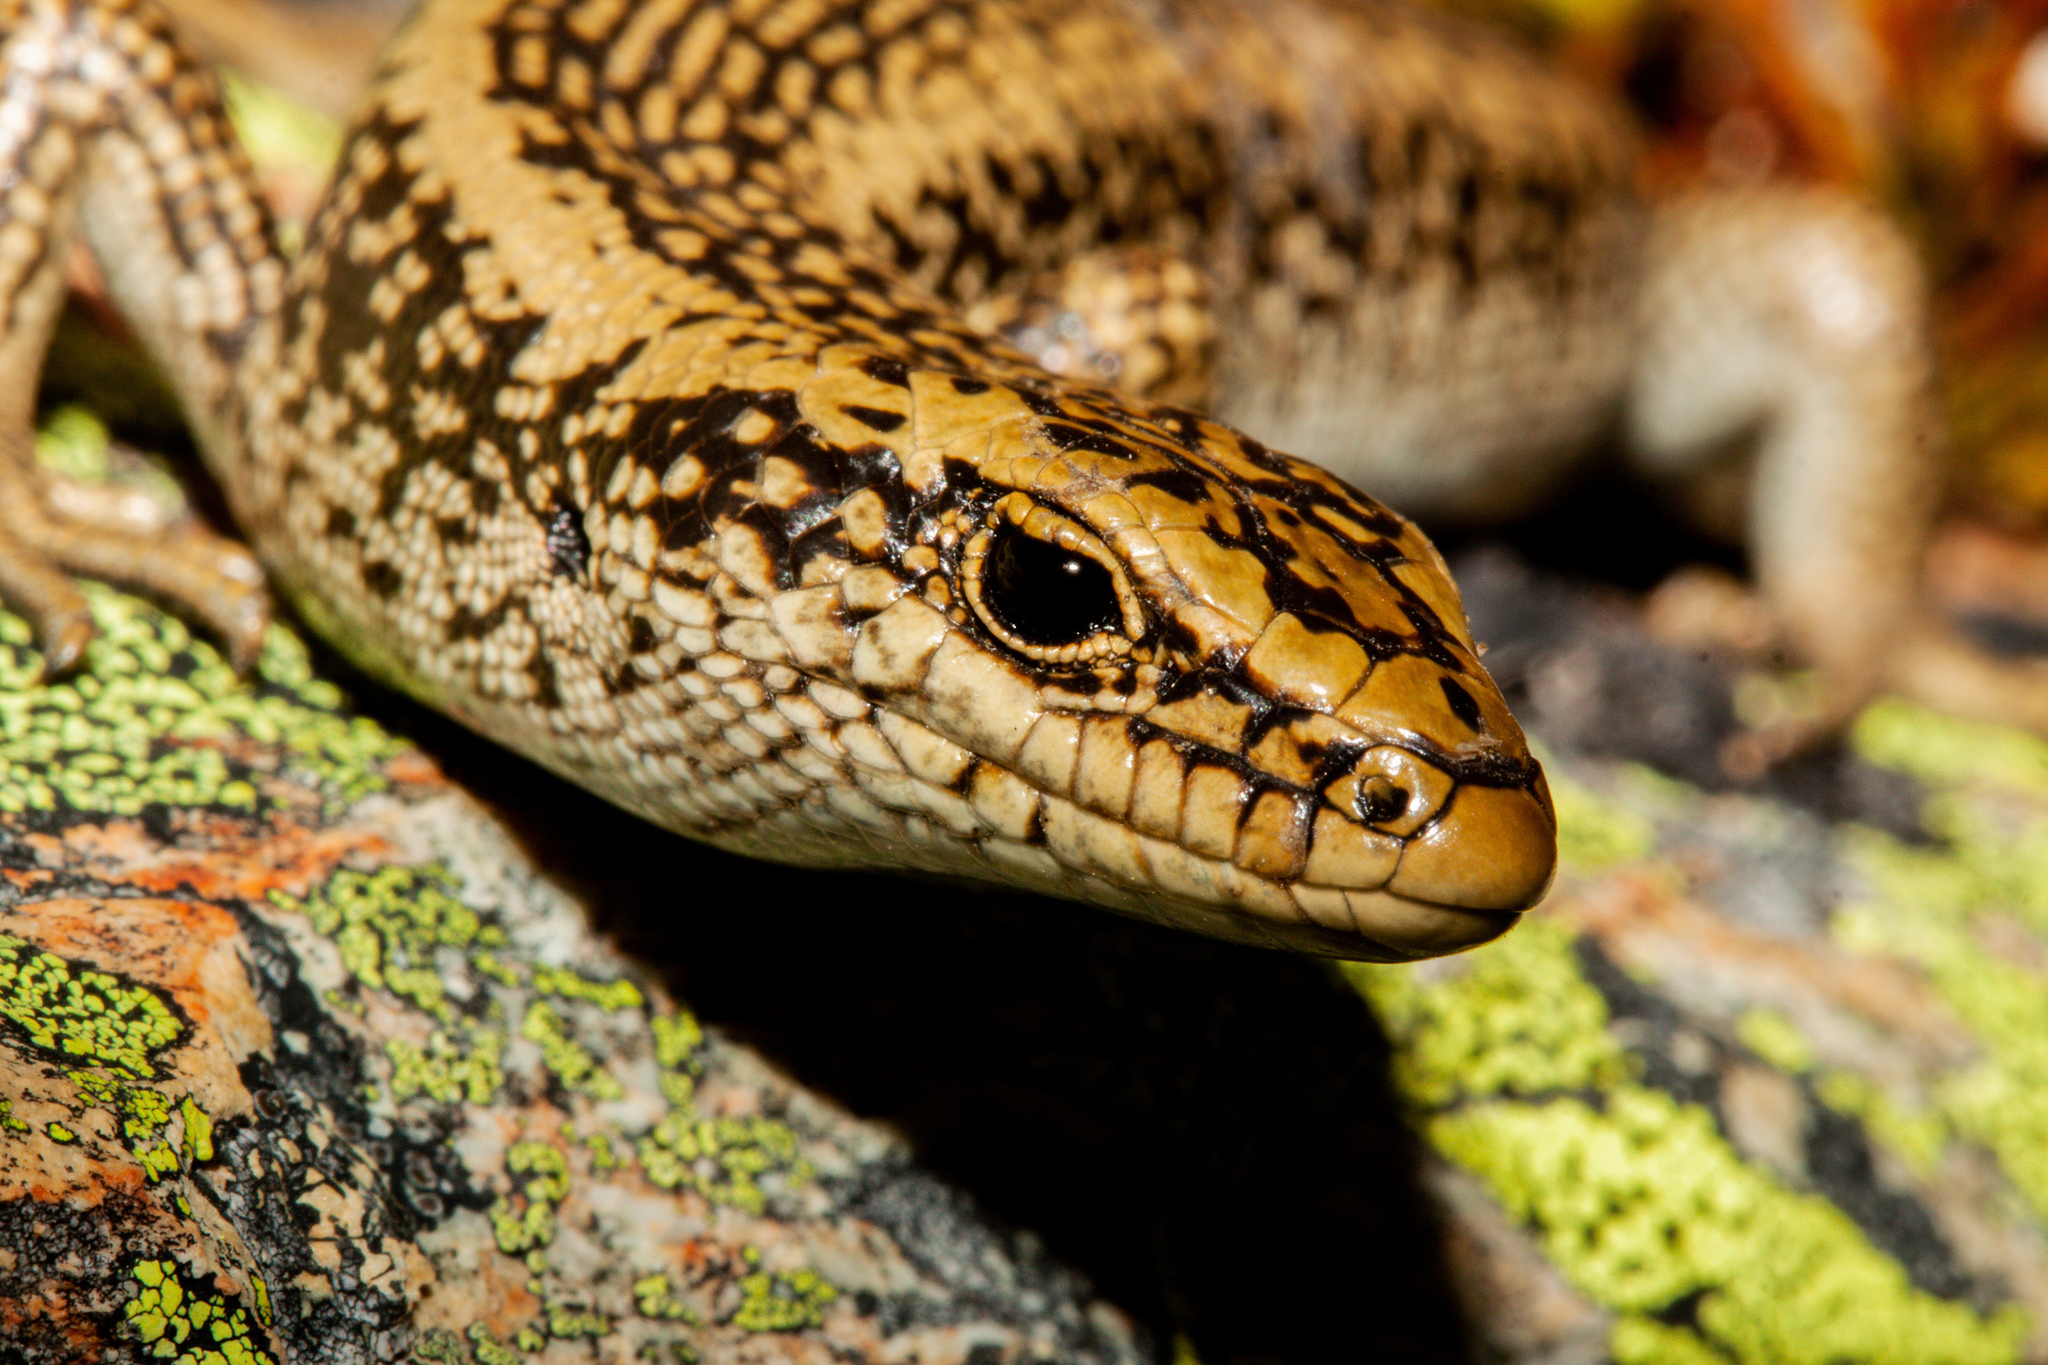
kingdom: Animalia
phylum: Chordata
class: Squamata
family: Scincidae
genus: Oligosoma
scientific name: Oligosoma waimatense
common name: Scree skink
